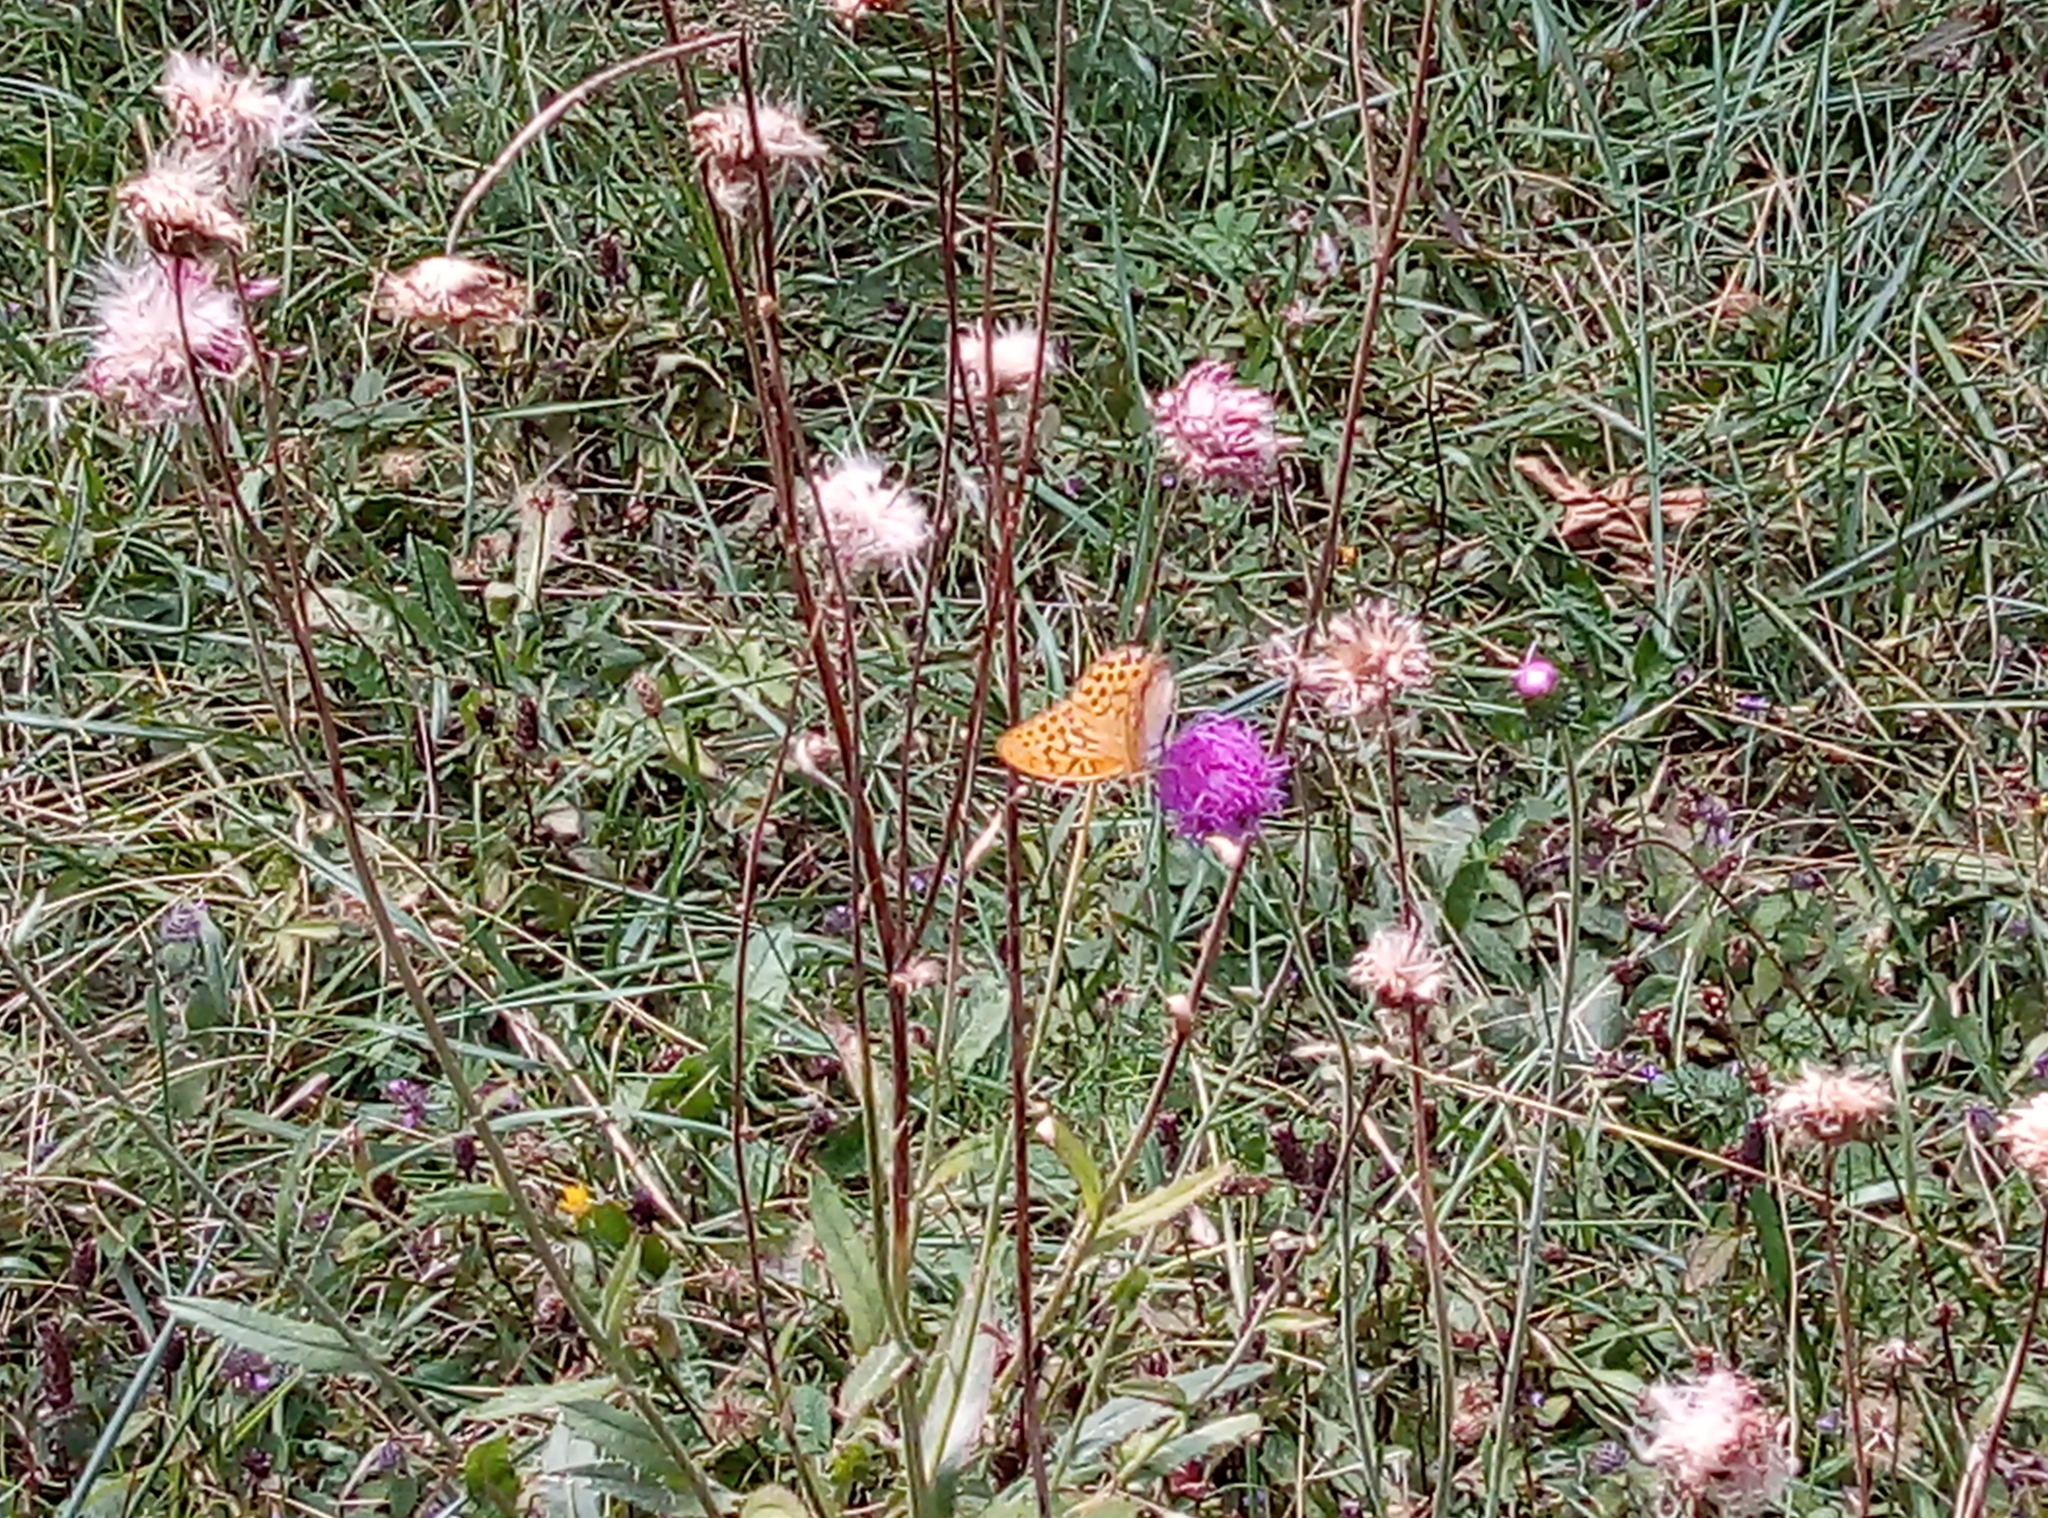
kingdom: Animalia
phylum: Arthropoda
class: Insecta
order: Lepidoptera
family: Nymphalidae
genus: Argynnis
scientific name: Argynnis paphia
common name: Silver-washed fritillary
